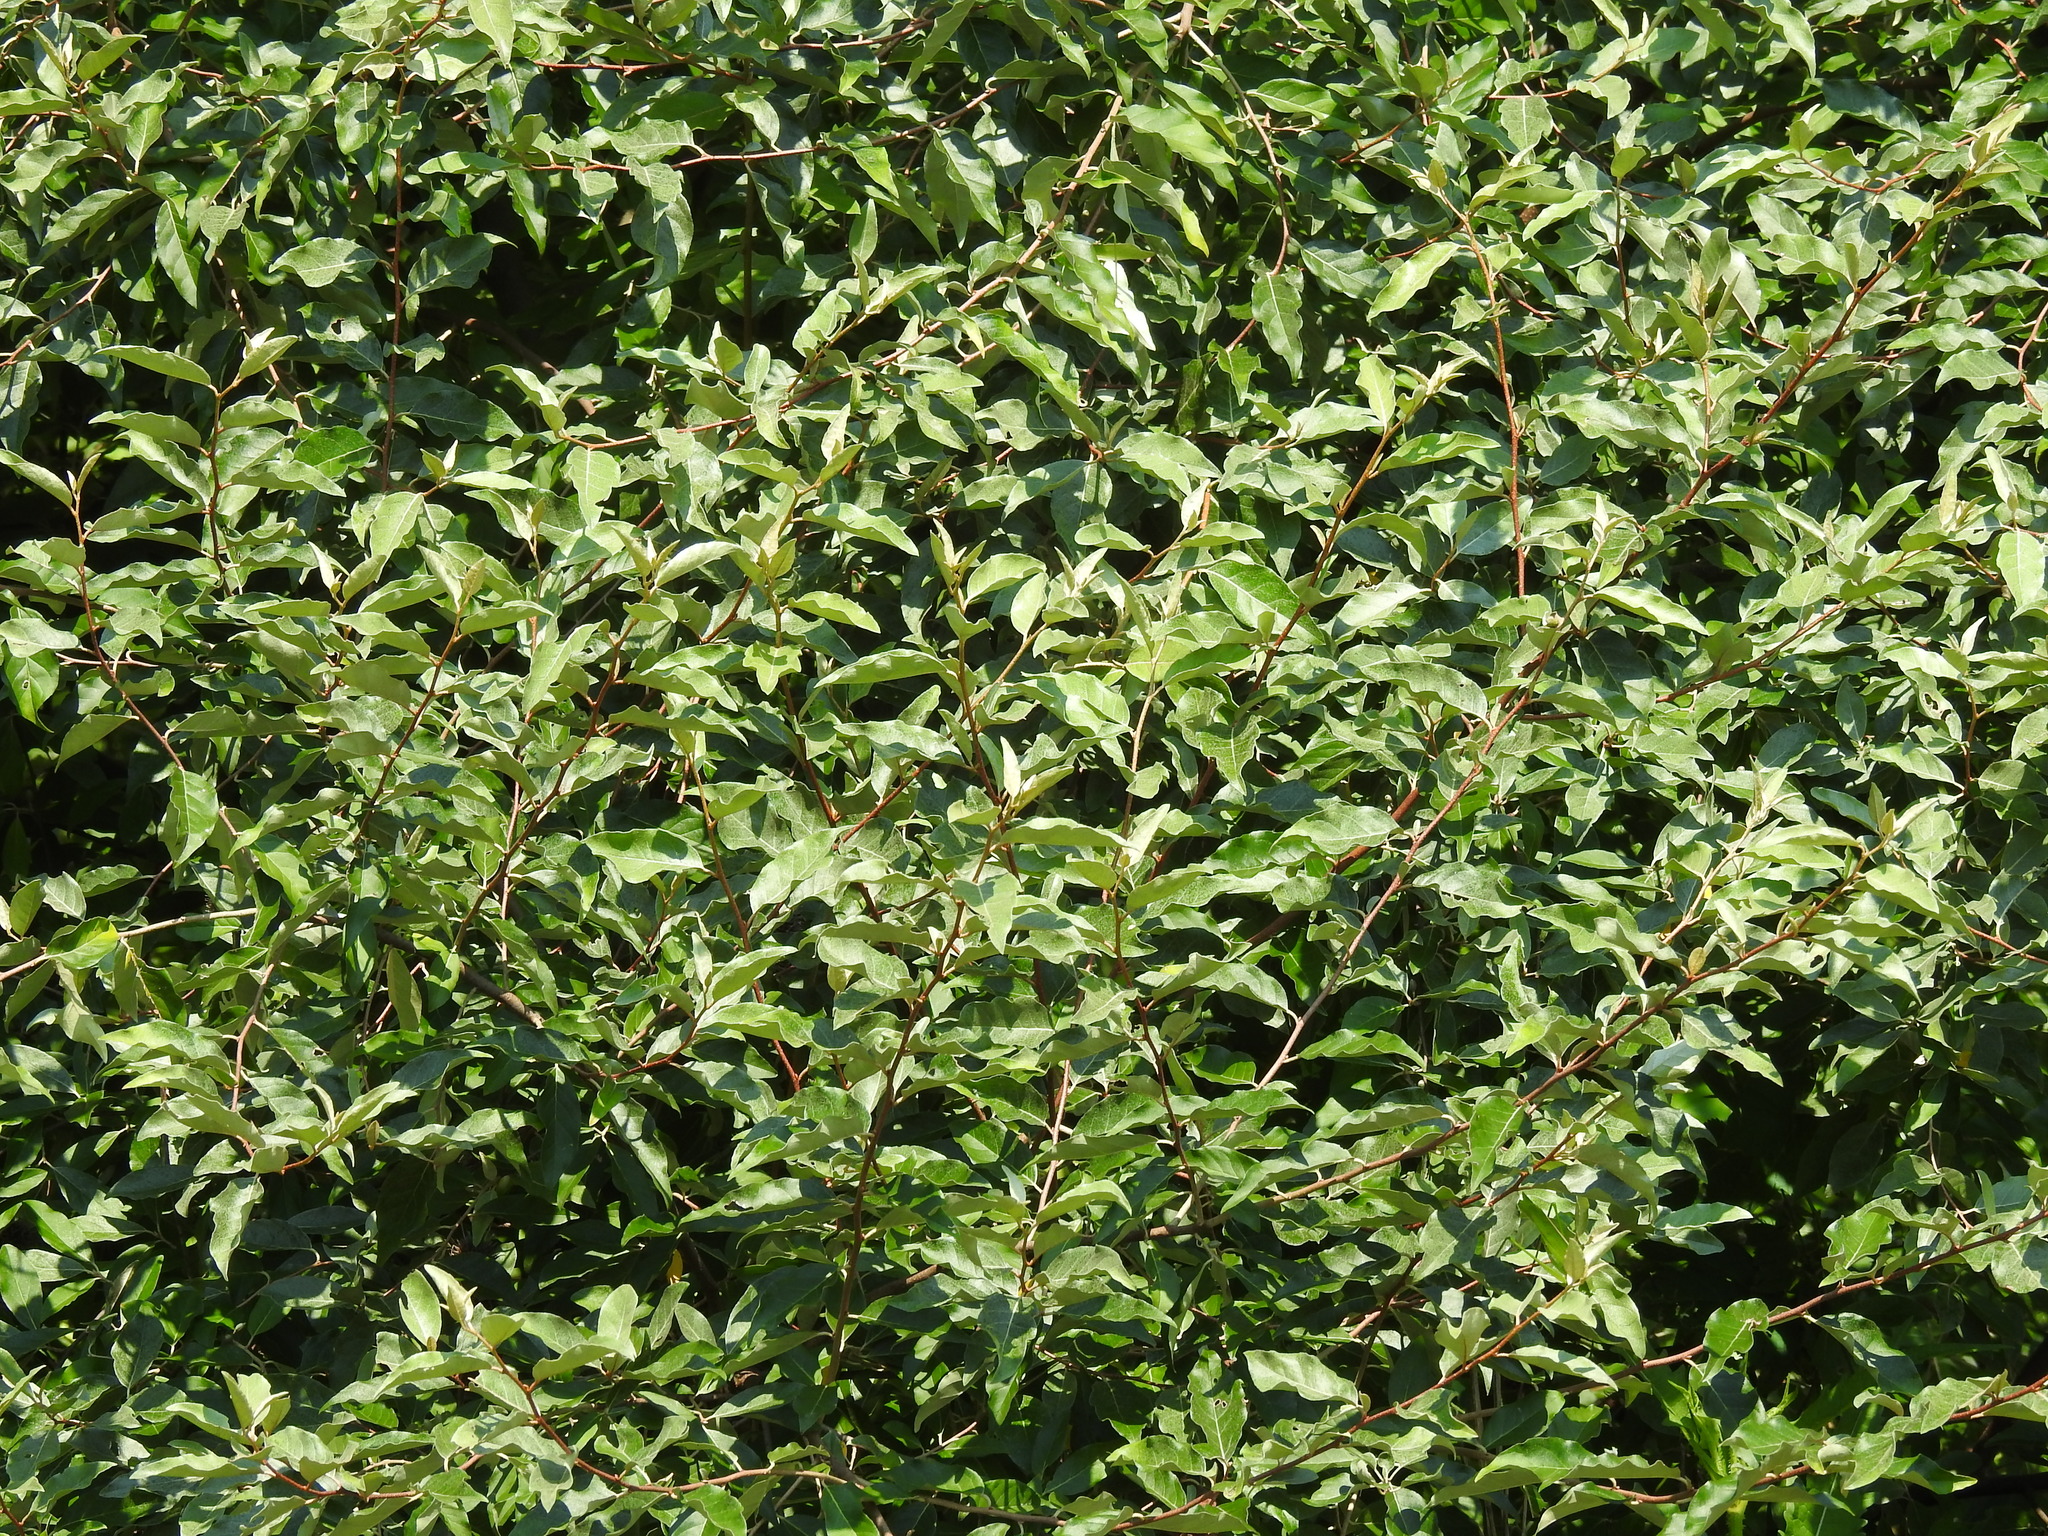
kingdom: Plantae
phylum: Tracheophyta
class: Magnoliopsida
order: Rosales
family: Elaeagnaceae
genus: Elaeagnus
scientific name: Elaeagnus umbellata
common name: Autumn olive
